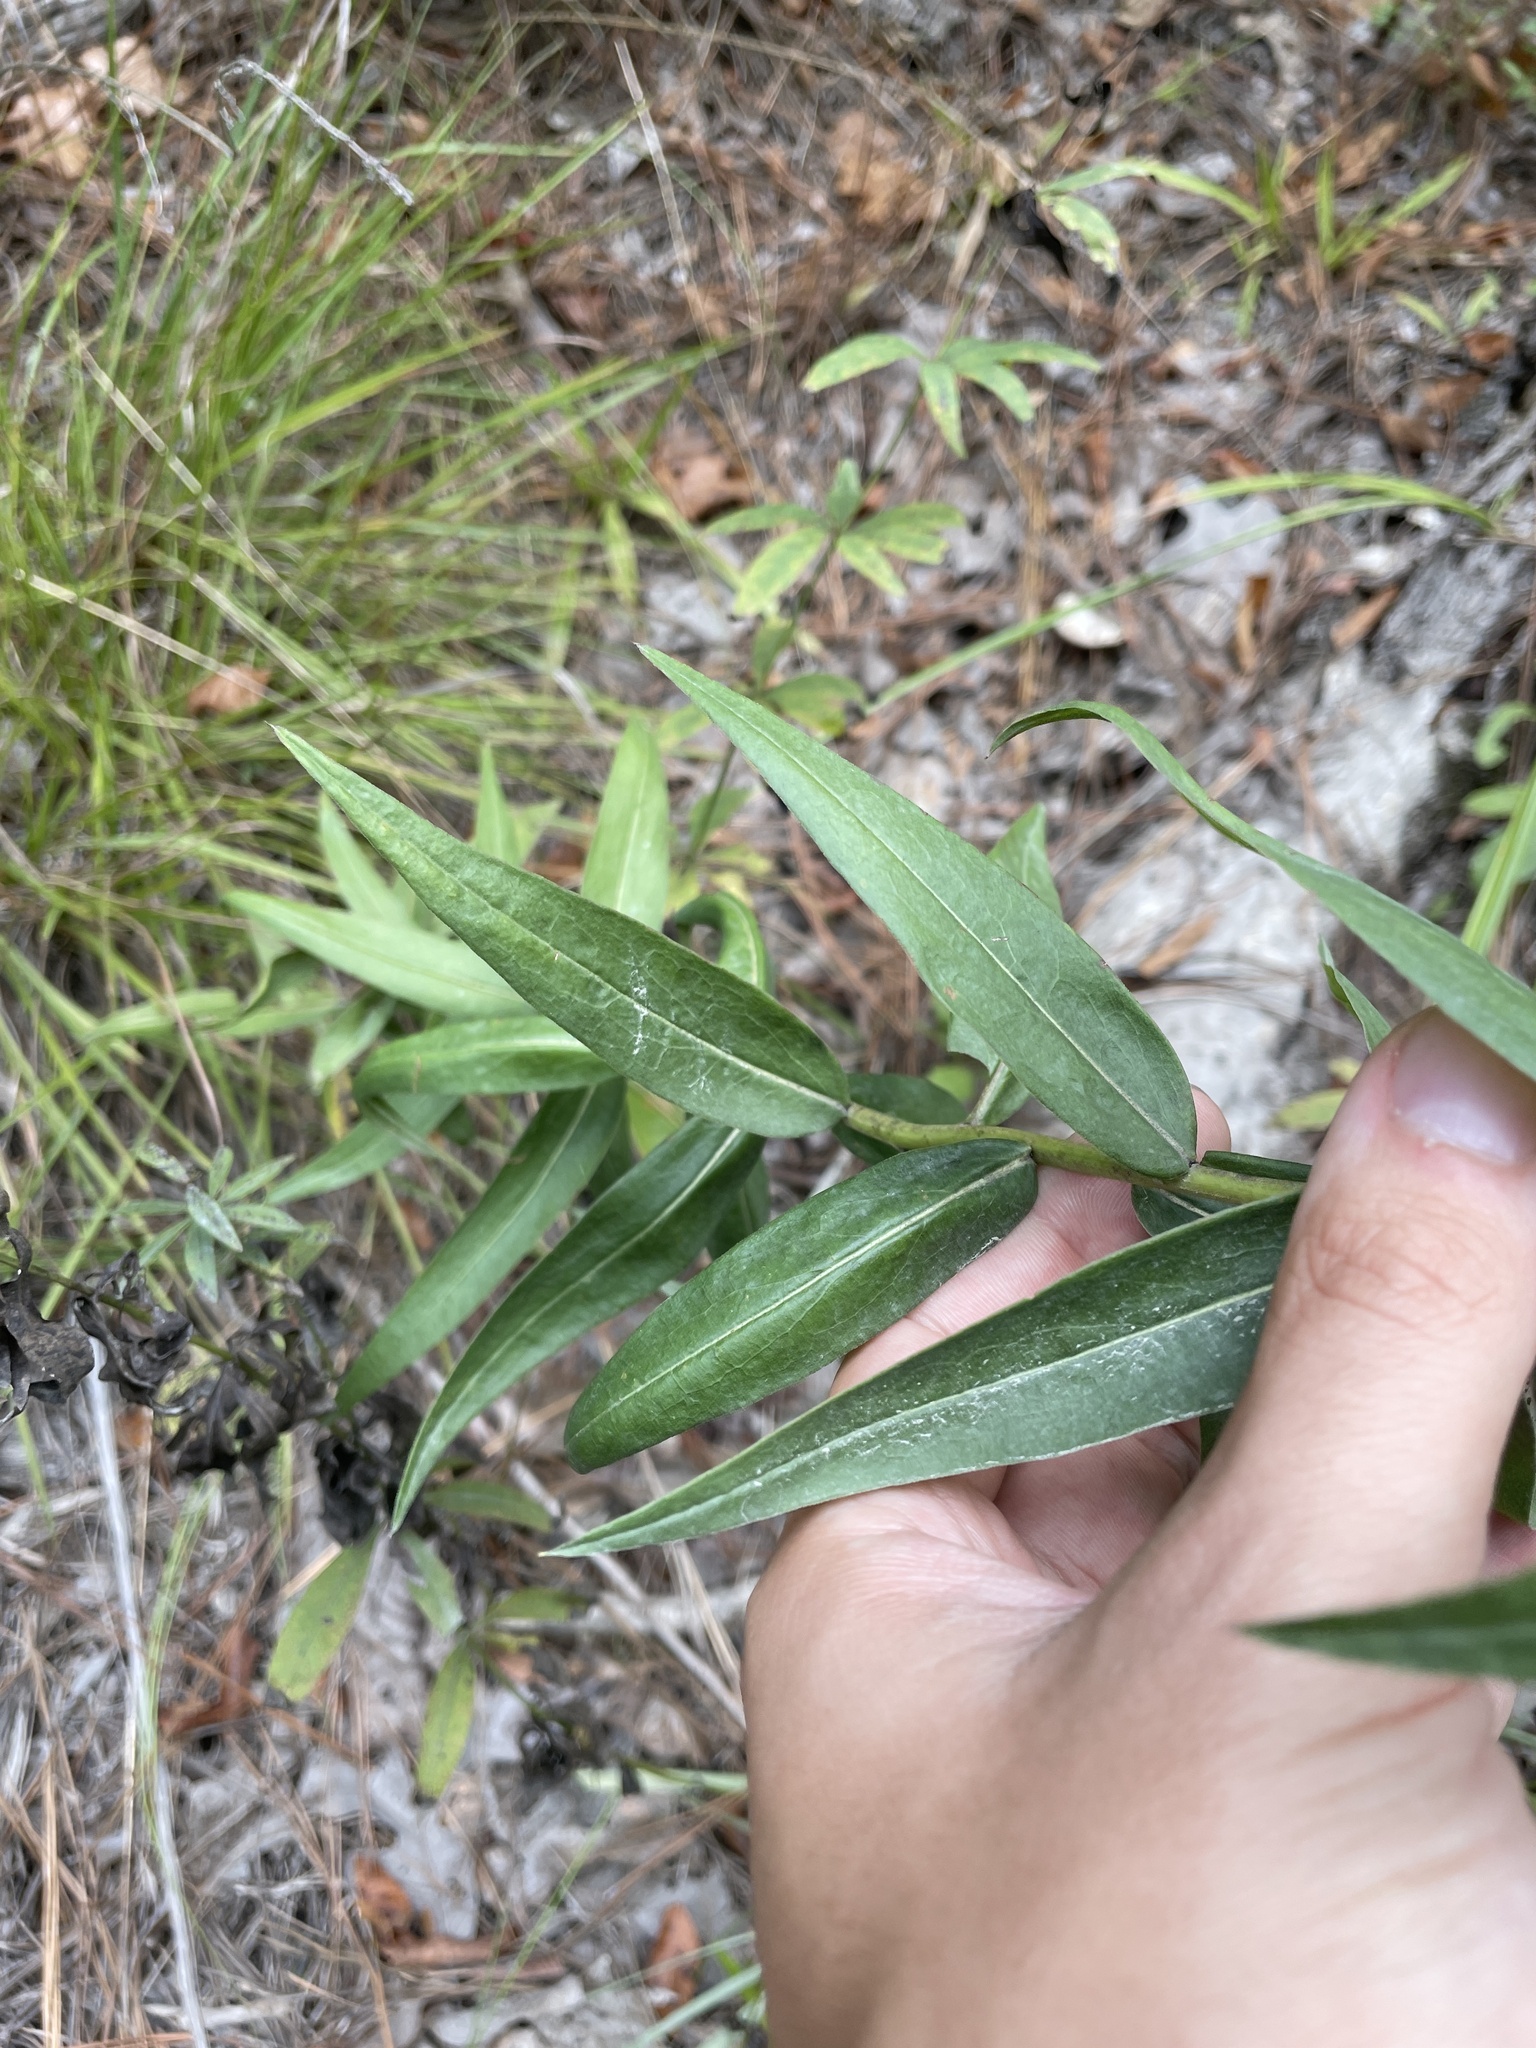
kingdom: Plantae
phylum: Tracheophyta
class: Magnoliopsida
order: Asterales
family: Asteraceae
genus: Solidago
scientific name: Solidago odora
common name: Anise-scented goldenrod
